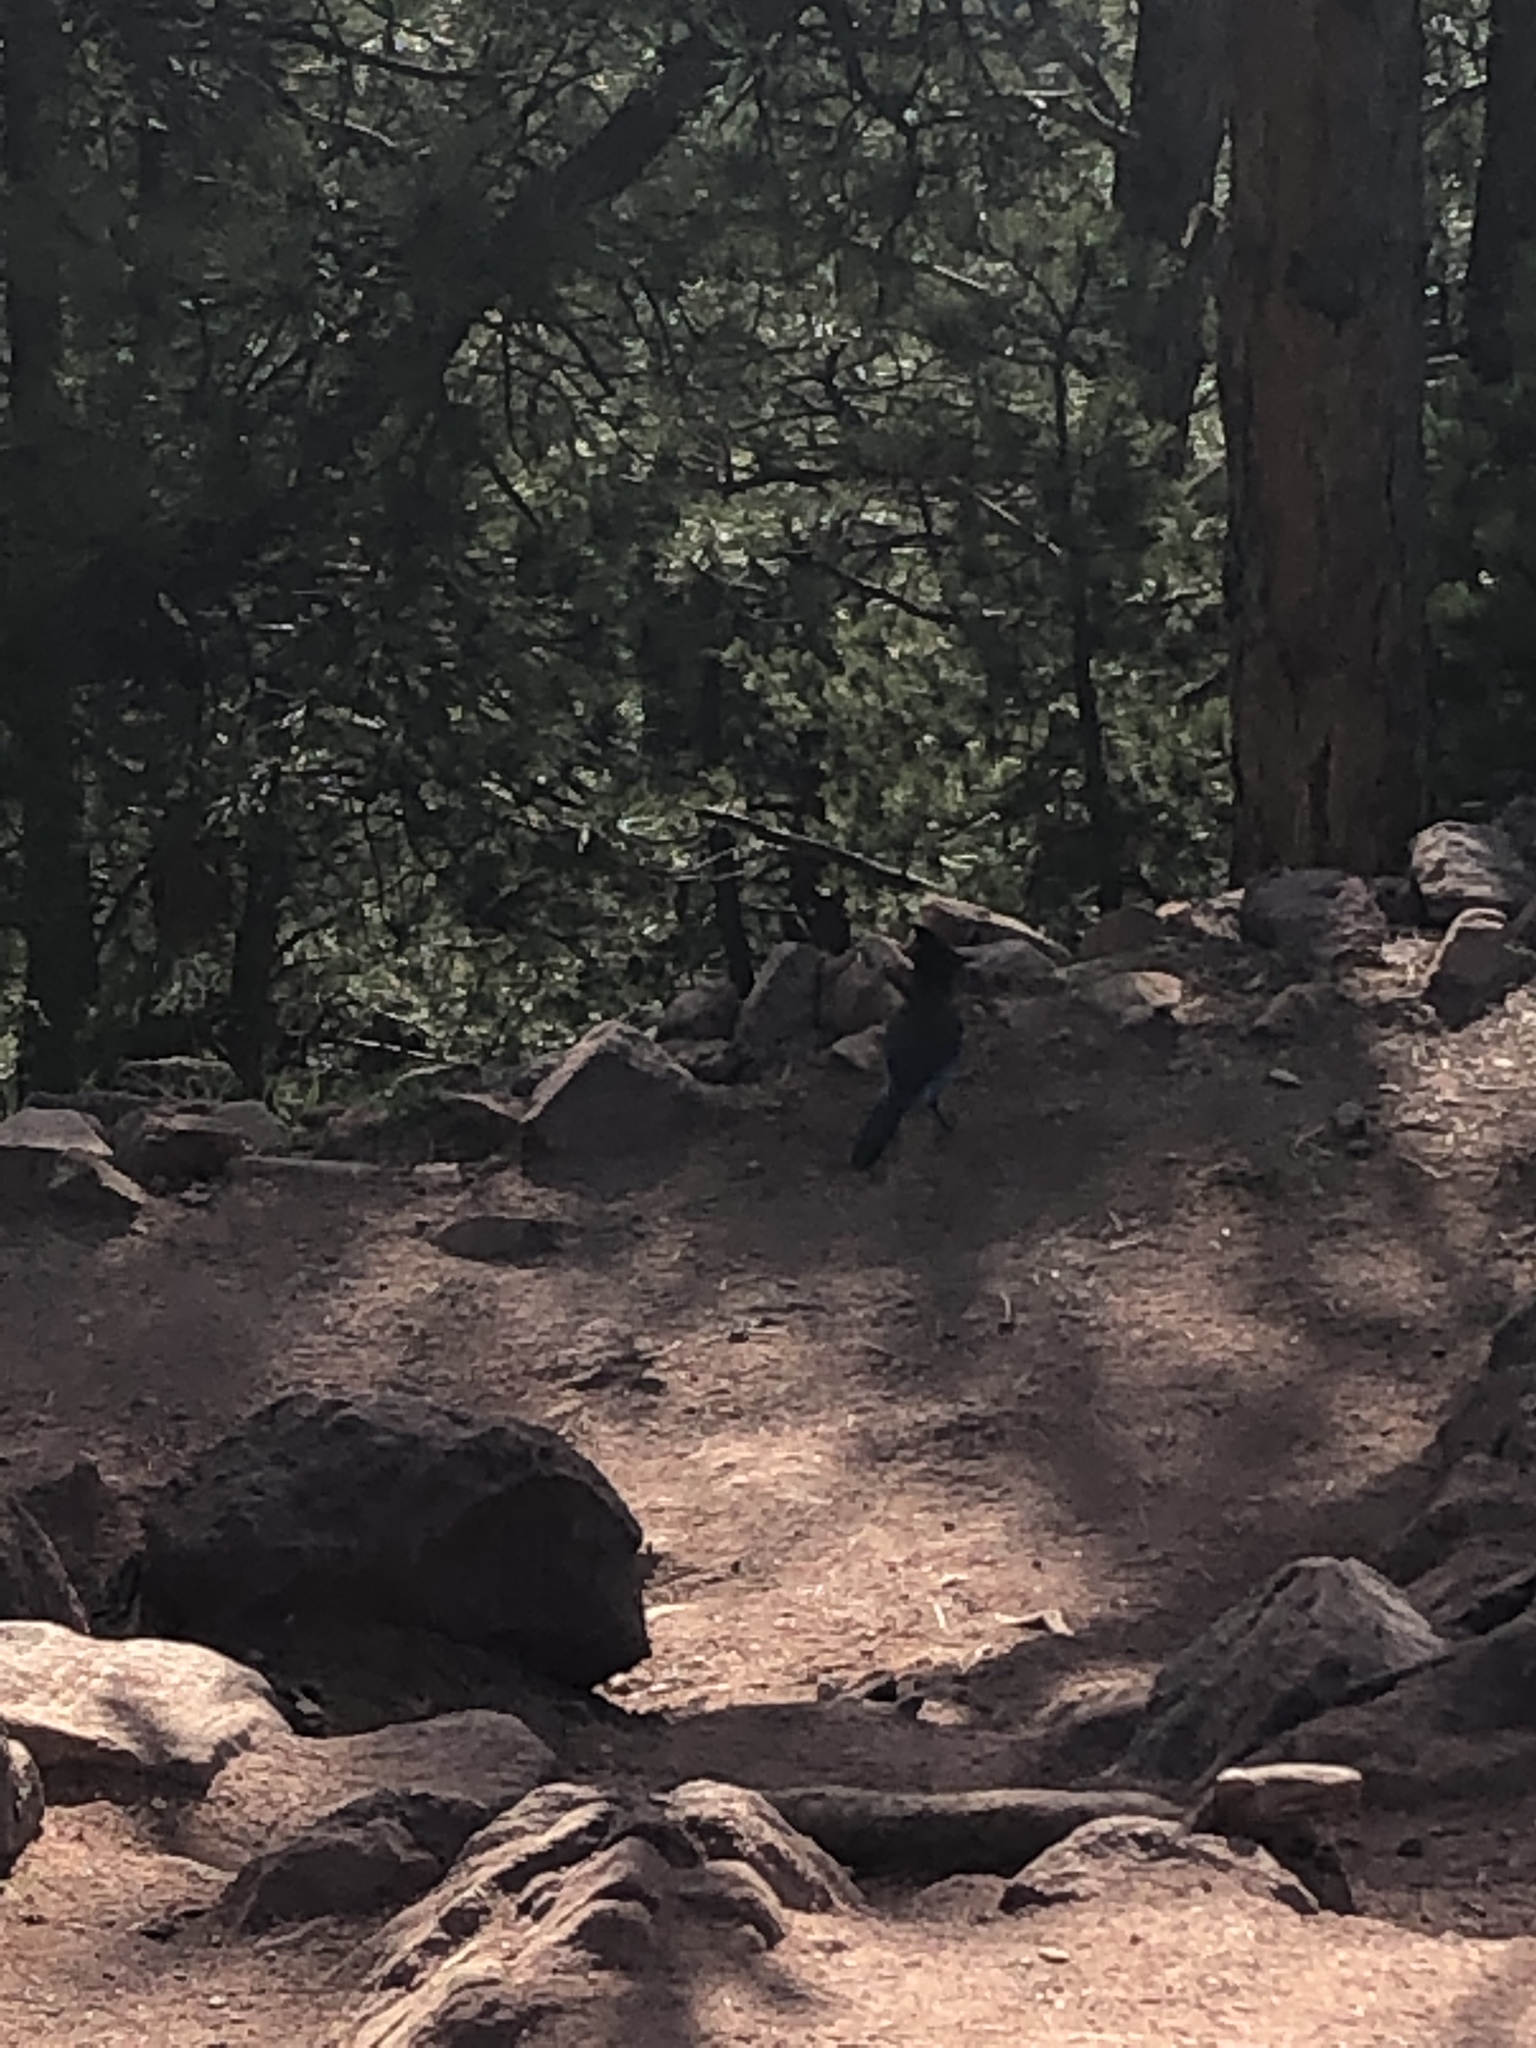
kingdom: Animalia
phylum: Chordata
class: Aves
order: Passeriformes
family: Corvidae
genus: Cyanocitta
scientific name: Cyanocitta stelleri
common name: Steller's jay
